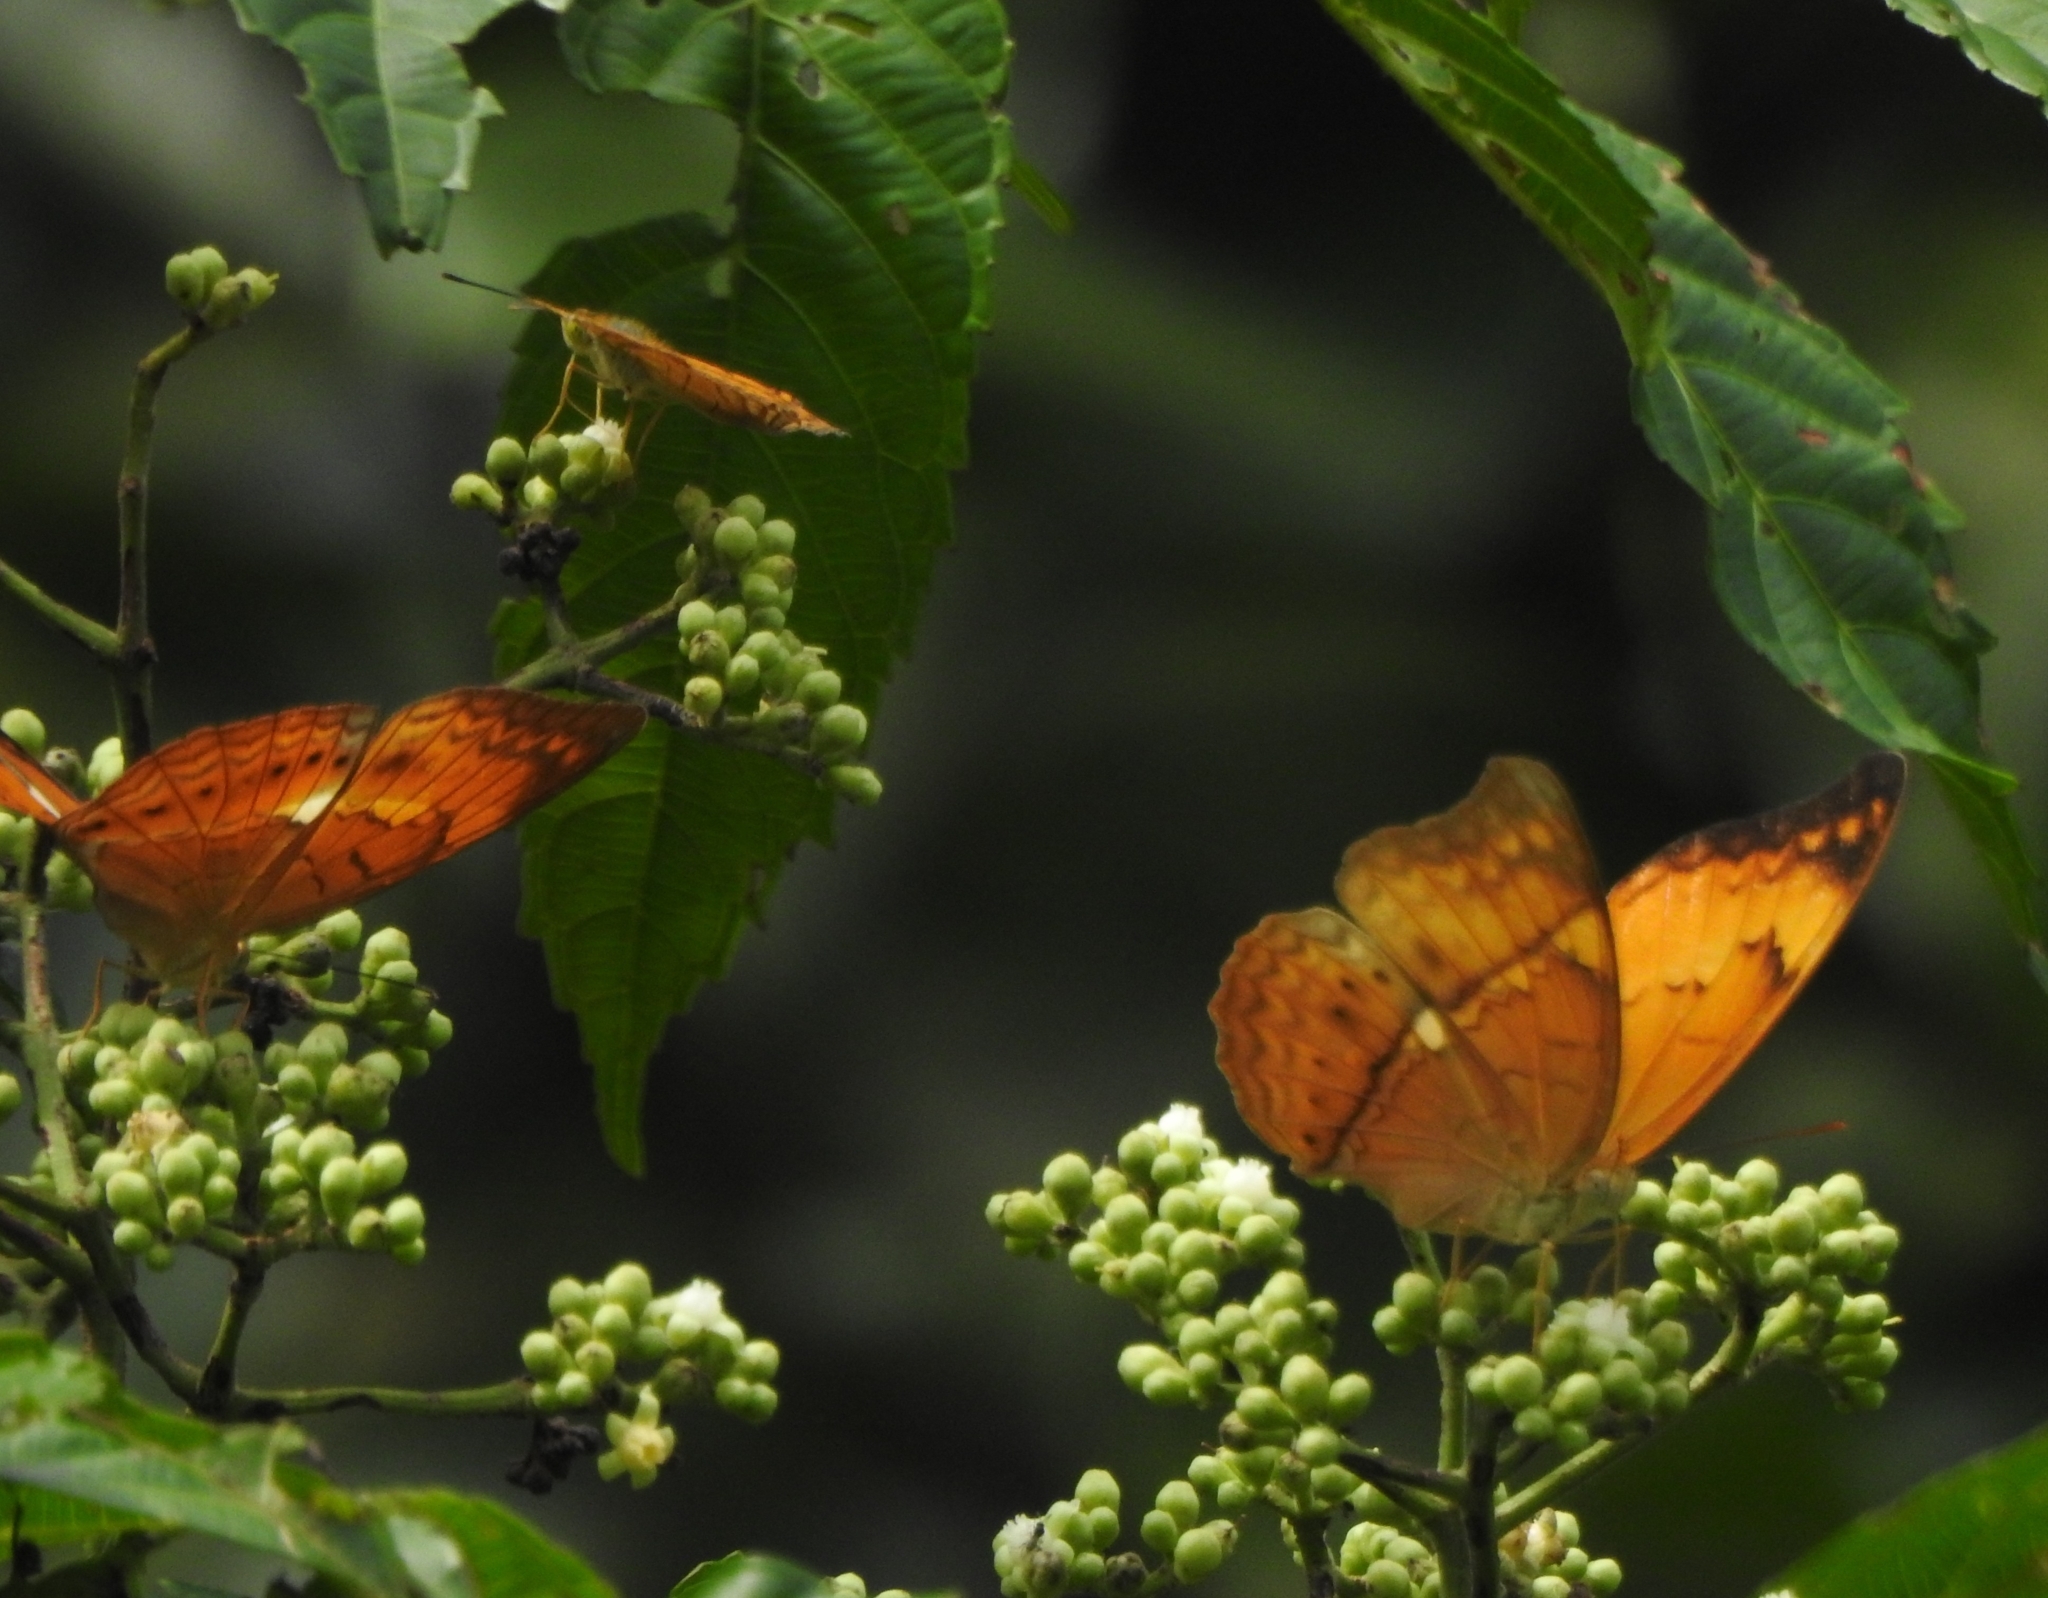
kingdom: Animalia
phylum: Arthropoda
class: Insecta
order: Lepidoptera
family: Nymphalidae
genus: Cirrochroa
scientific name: Cirrochroa thais
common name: Tamil yeoman
